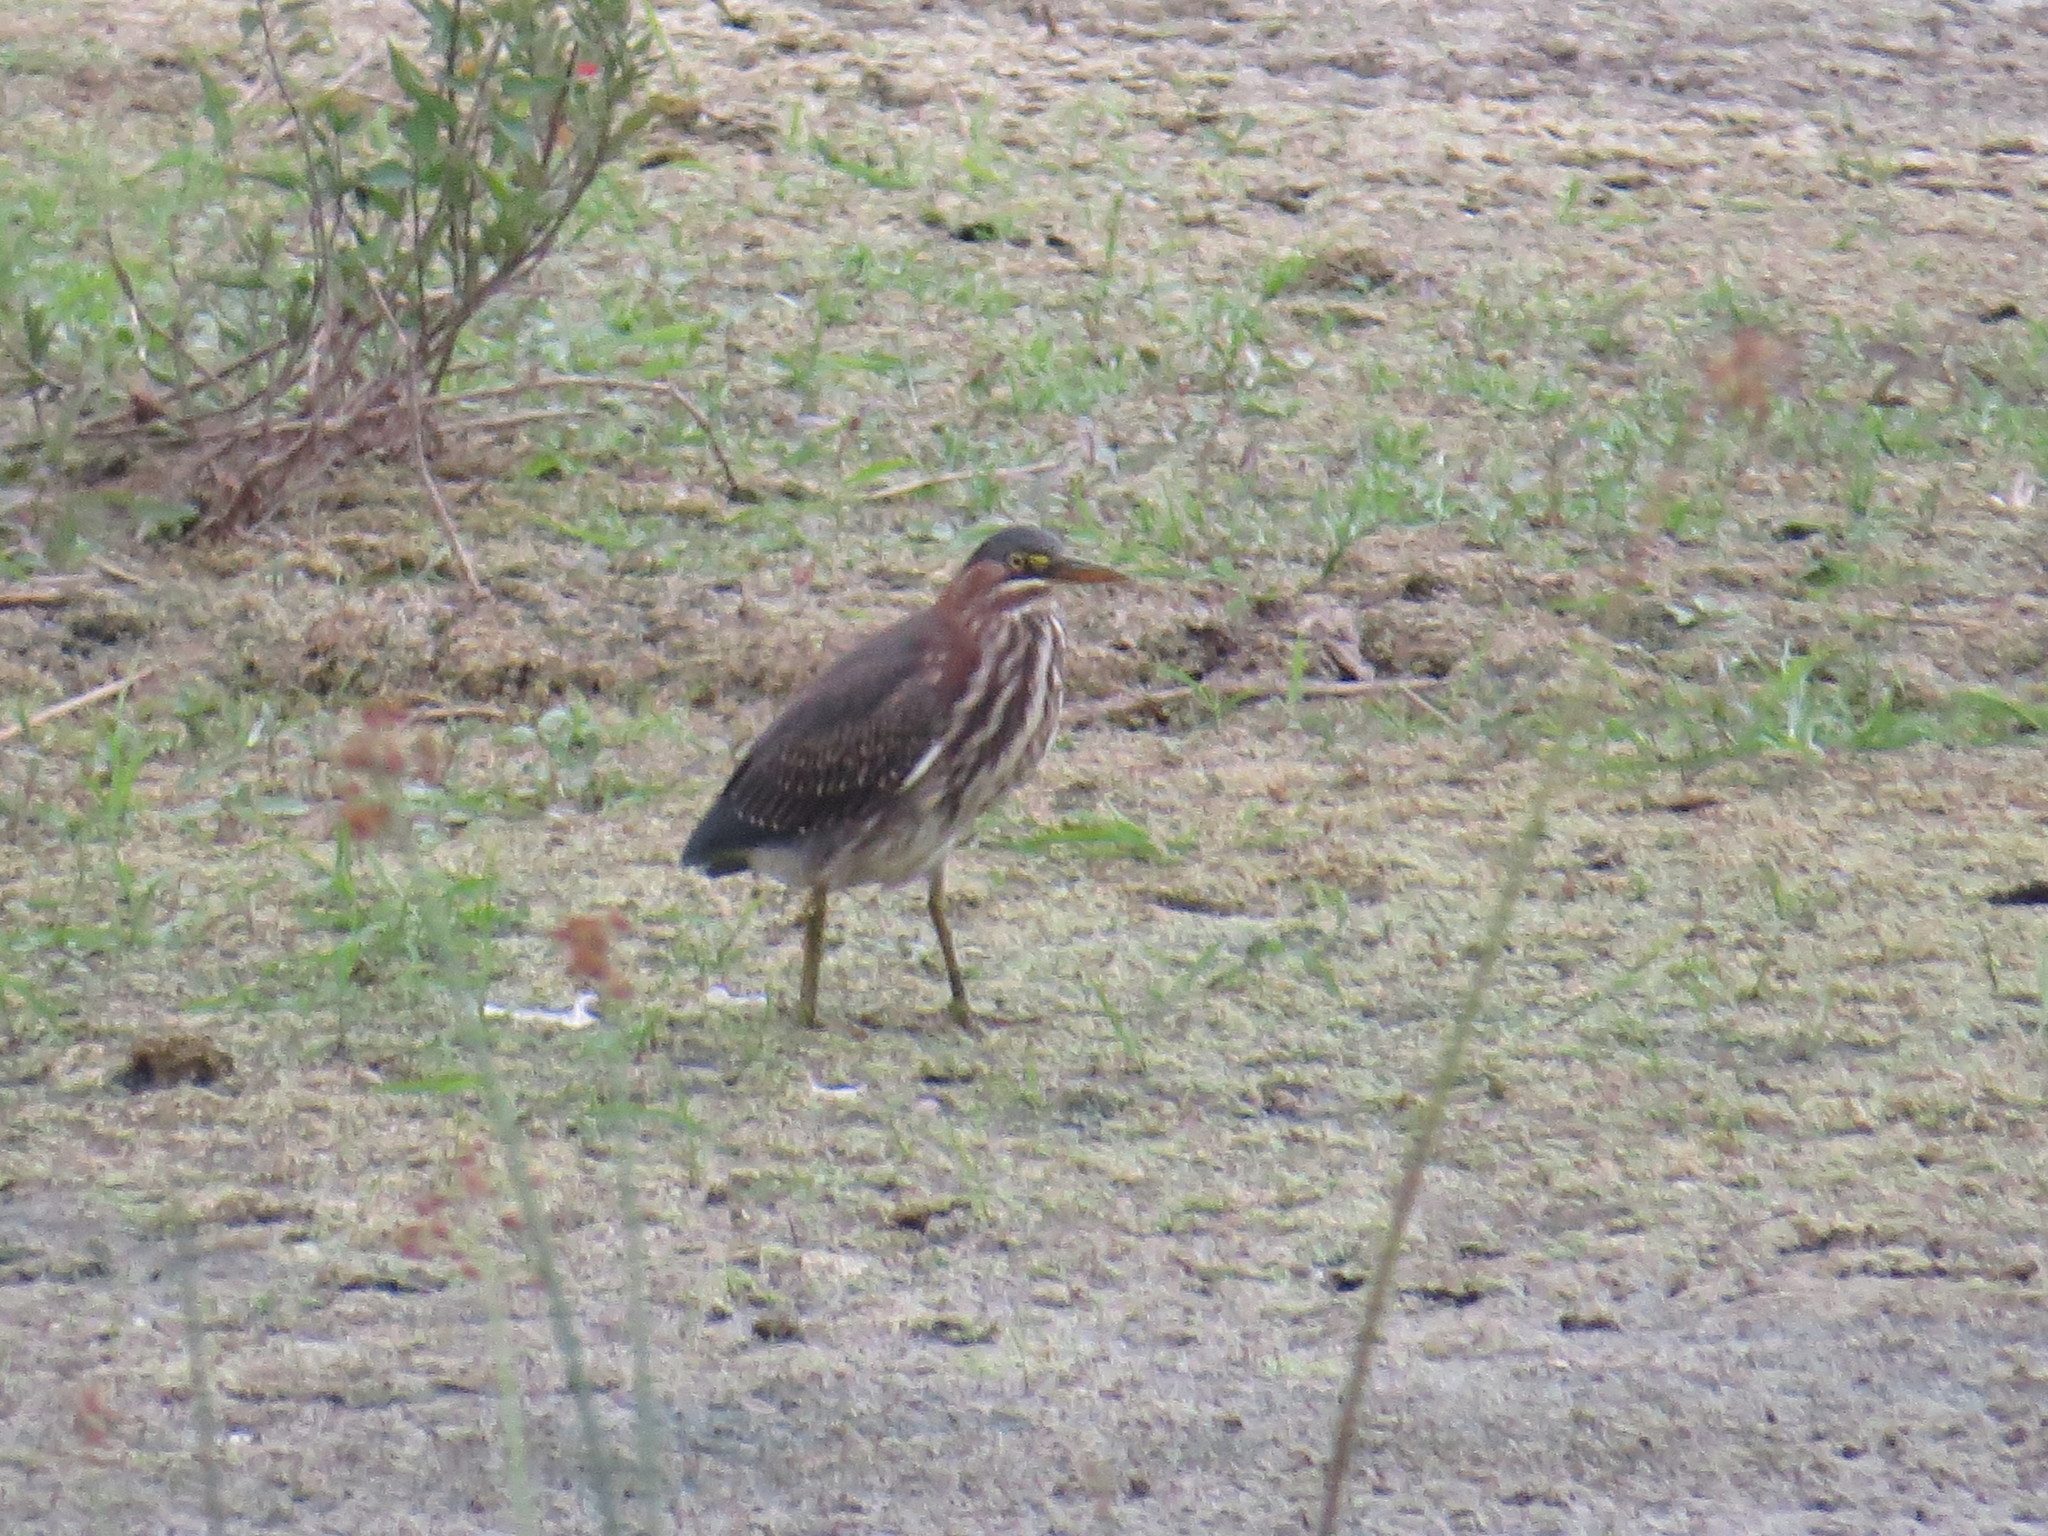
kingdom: Animalia
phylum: Chordata
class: Aves
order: Pelecaniformes
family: Ardeidae
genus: Butorides
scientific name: Butorides virescens
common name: Green heron
